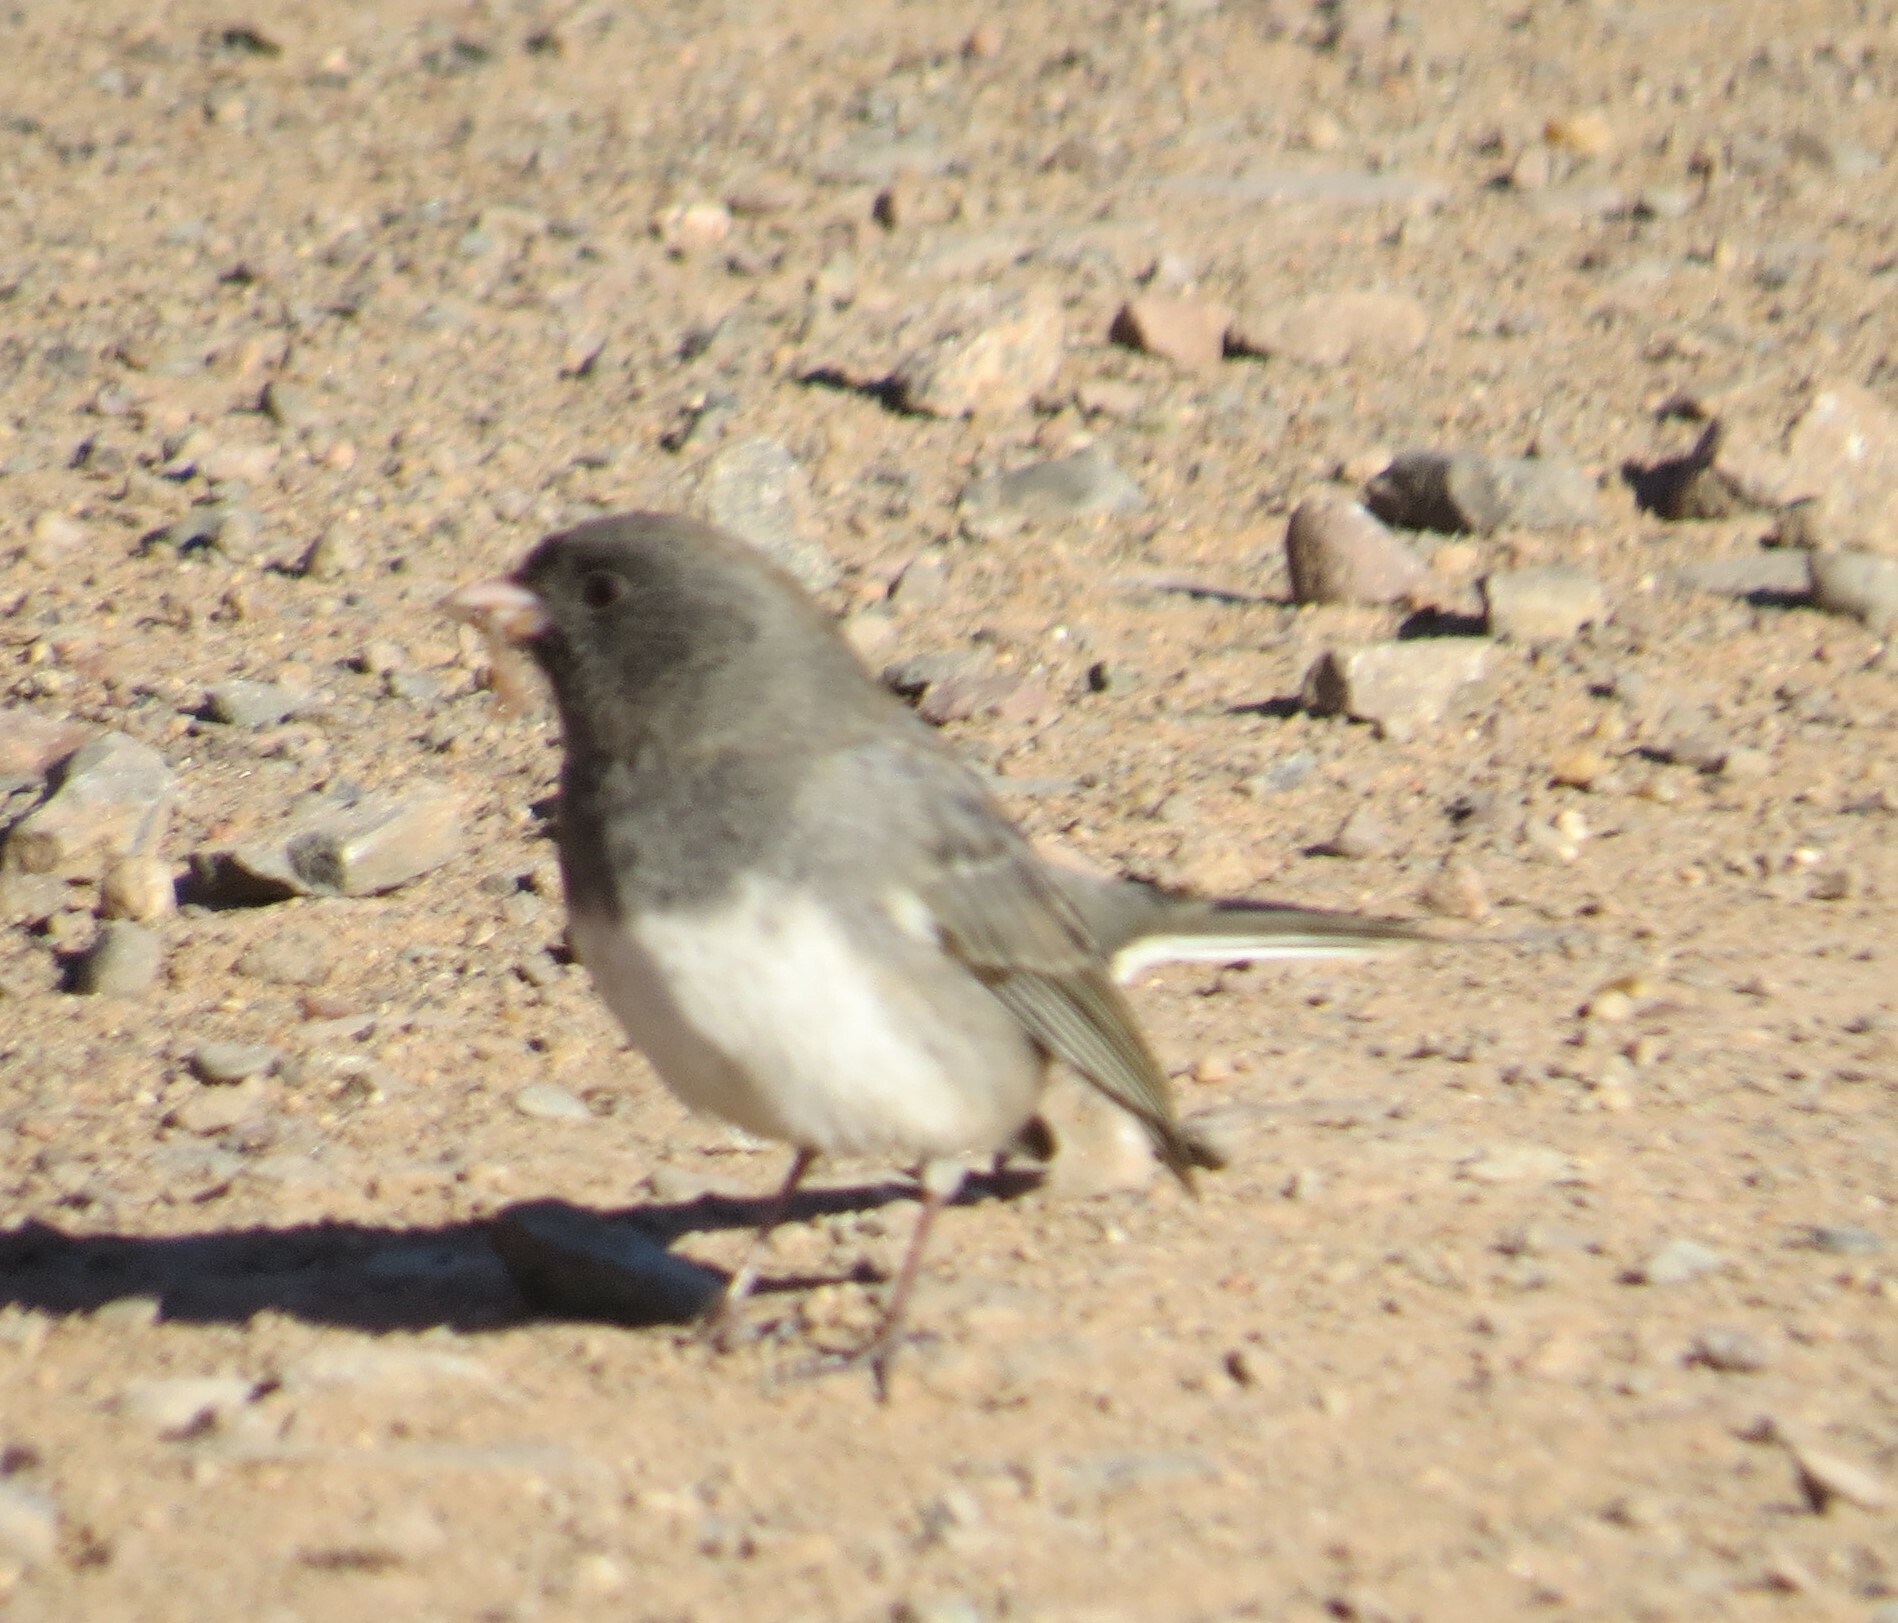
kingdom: Animalia
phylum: Chordata
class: Aves
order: Passeriformes
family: Passerellidae
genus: Junco
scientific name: Junco hyemalis
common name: Dark-eyed junco
